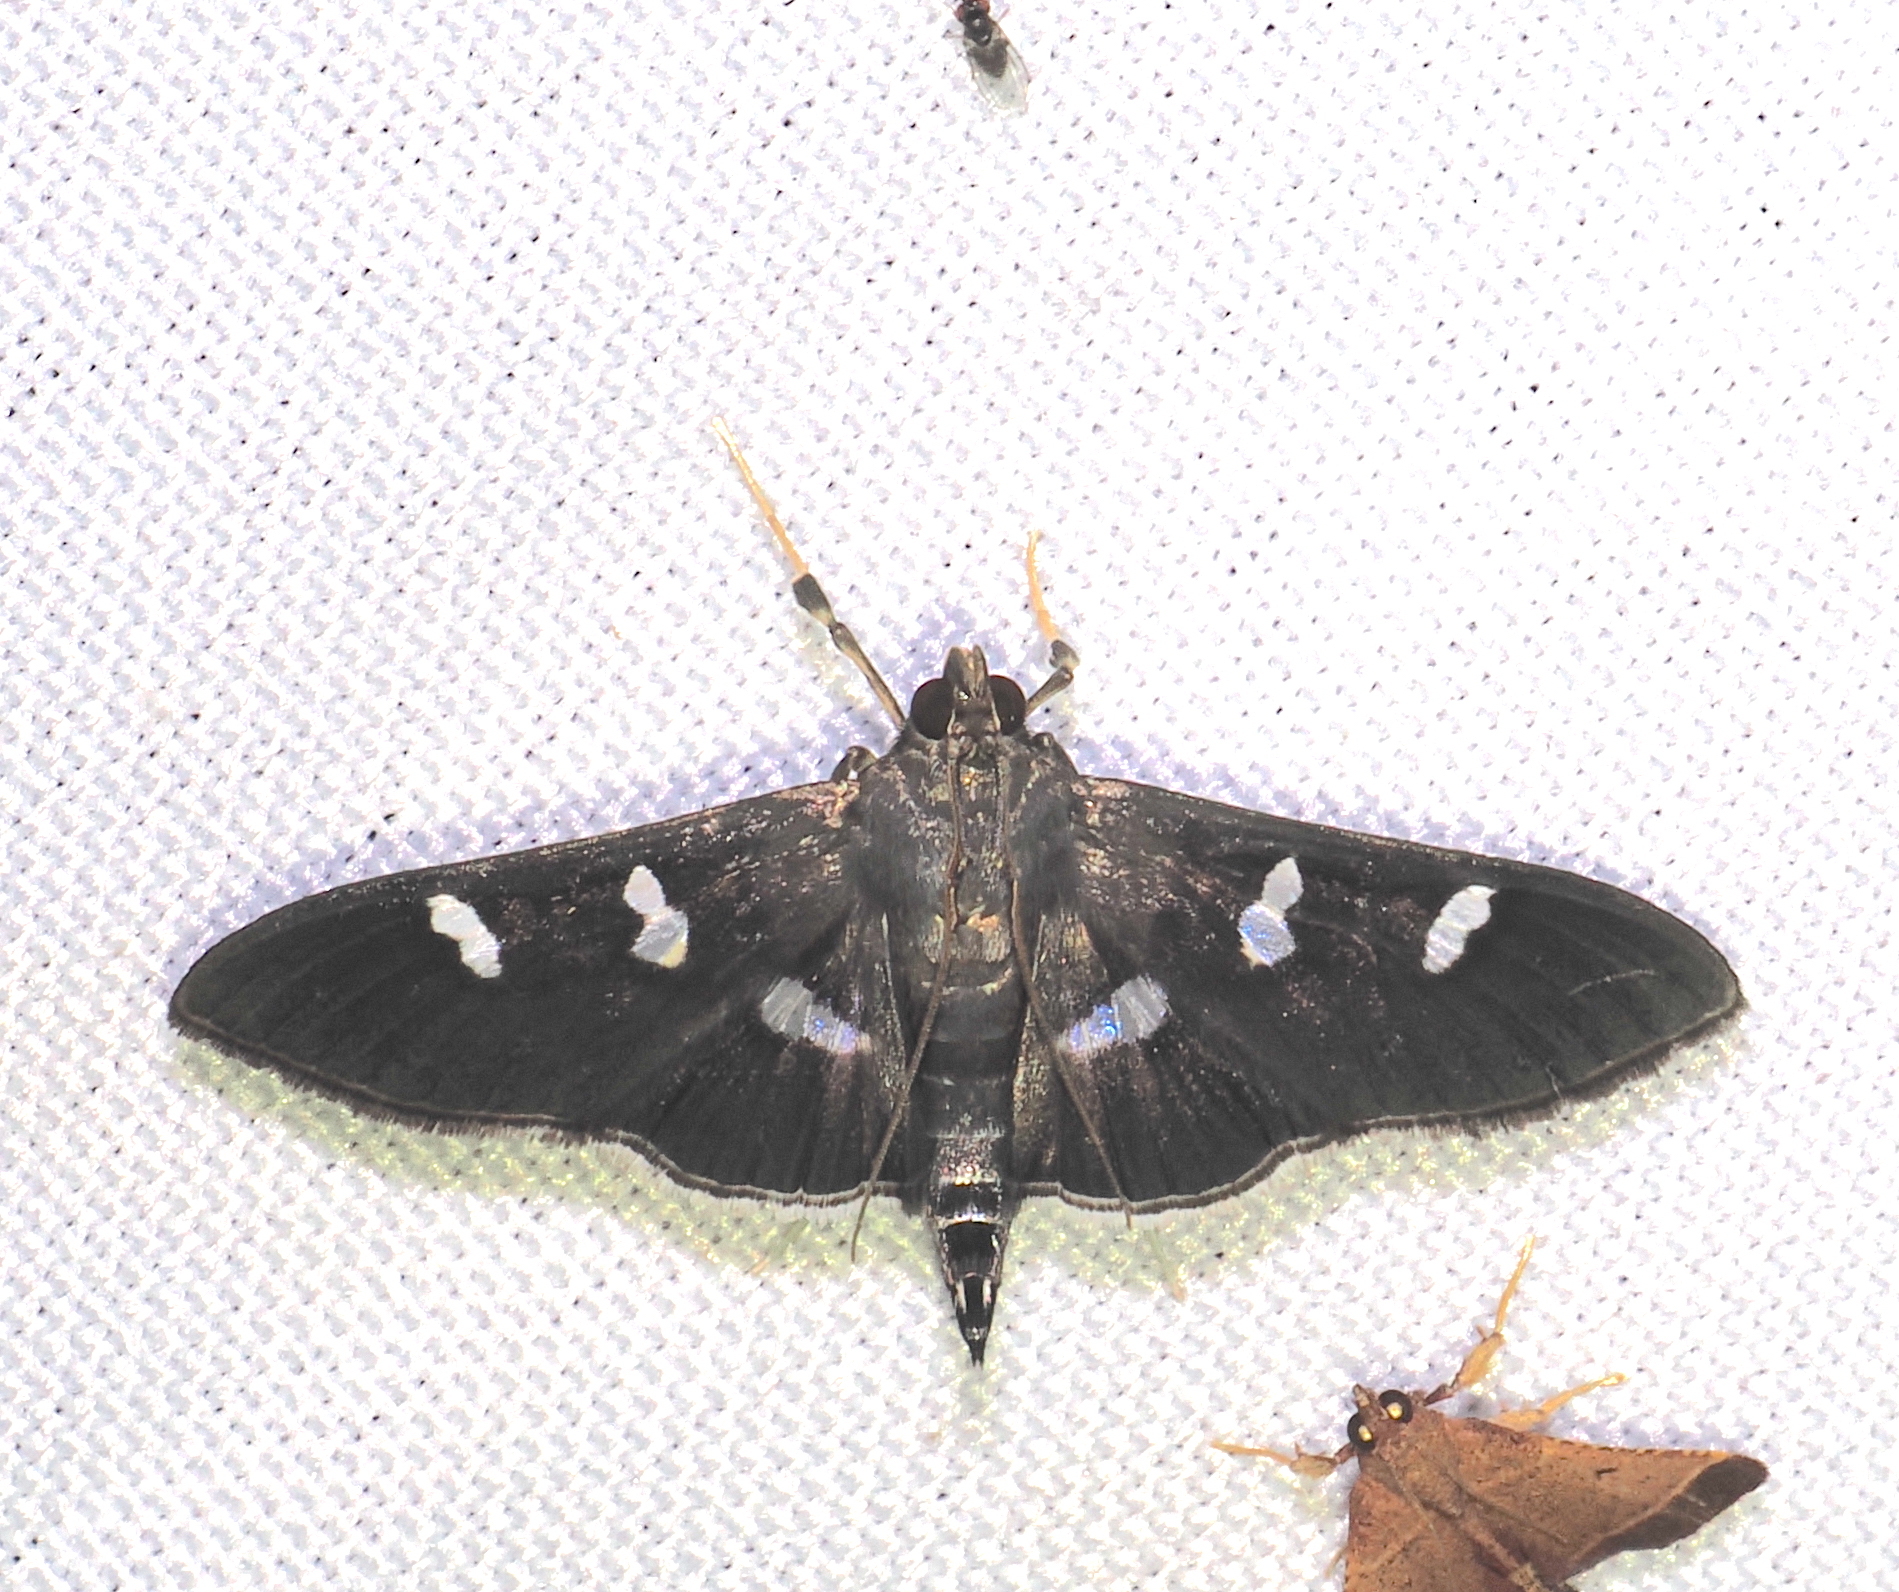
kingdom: Animalia
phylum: Arthropoda
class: Insecta
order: Lepidoptera
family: Crambidae
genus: Desmia
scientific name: Desmia ploralis
